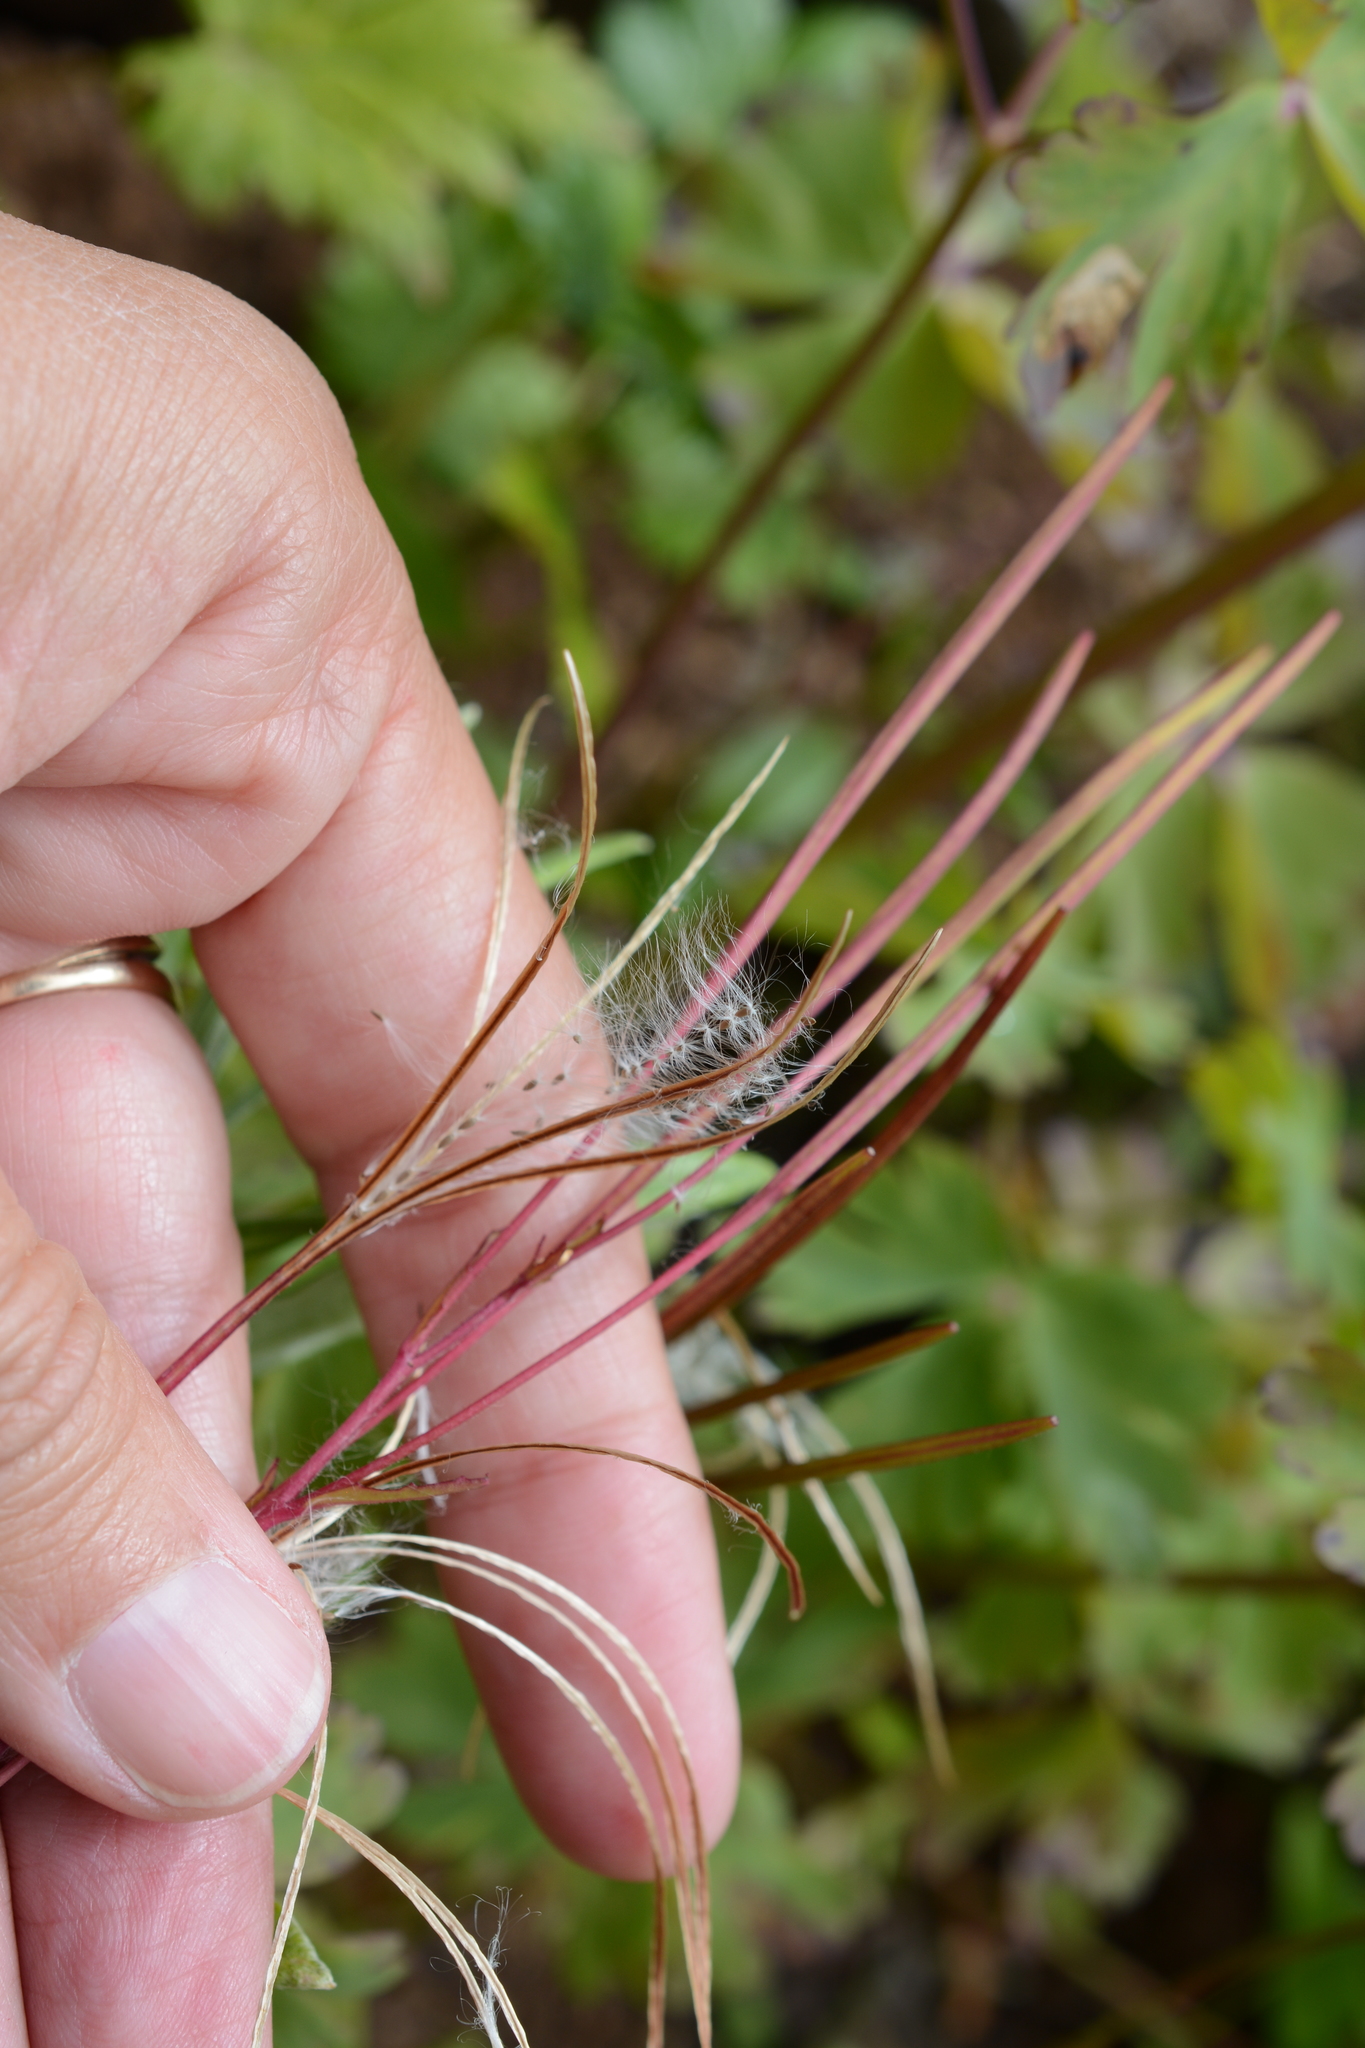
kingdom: Plantae
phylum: Tracheophyta
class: Magnoliopsida
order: Myrtales
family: Onagraceae
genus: Epilobium
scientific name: Epilobium ciliatum
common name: American willowherb
